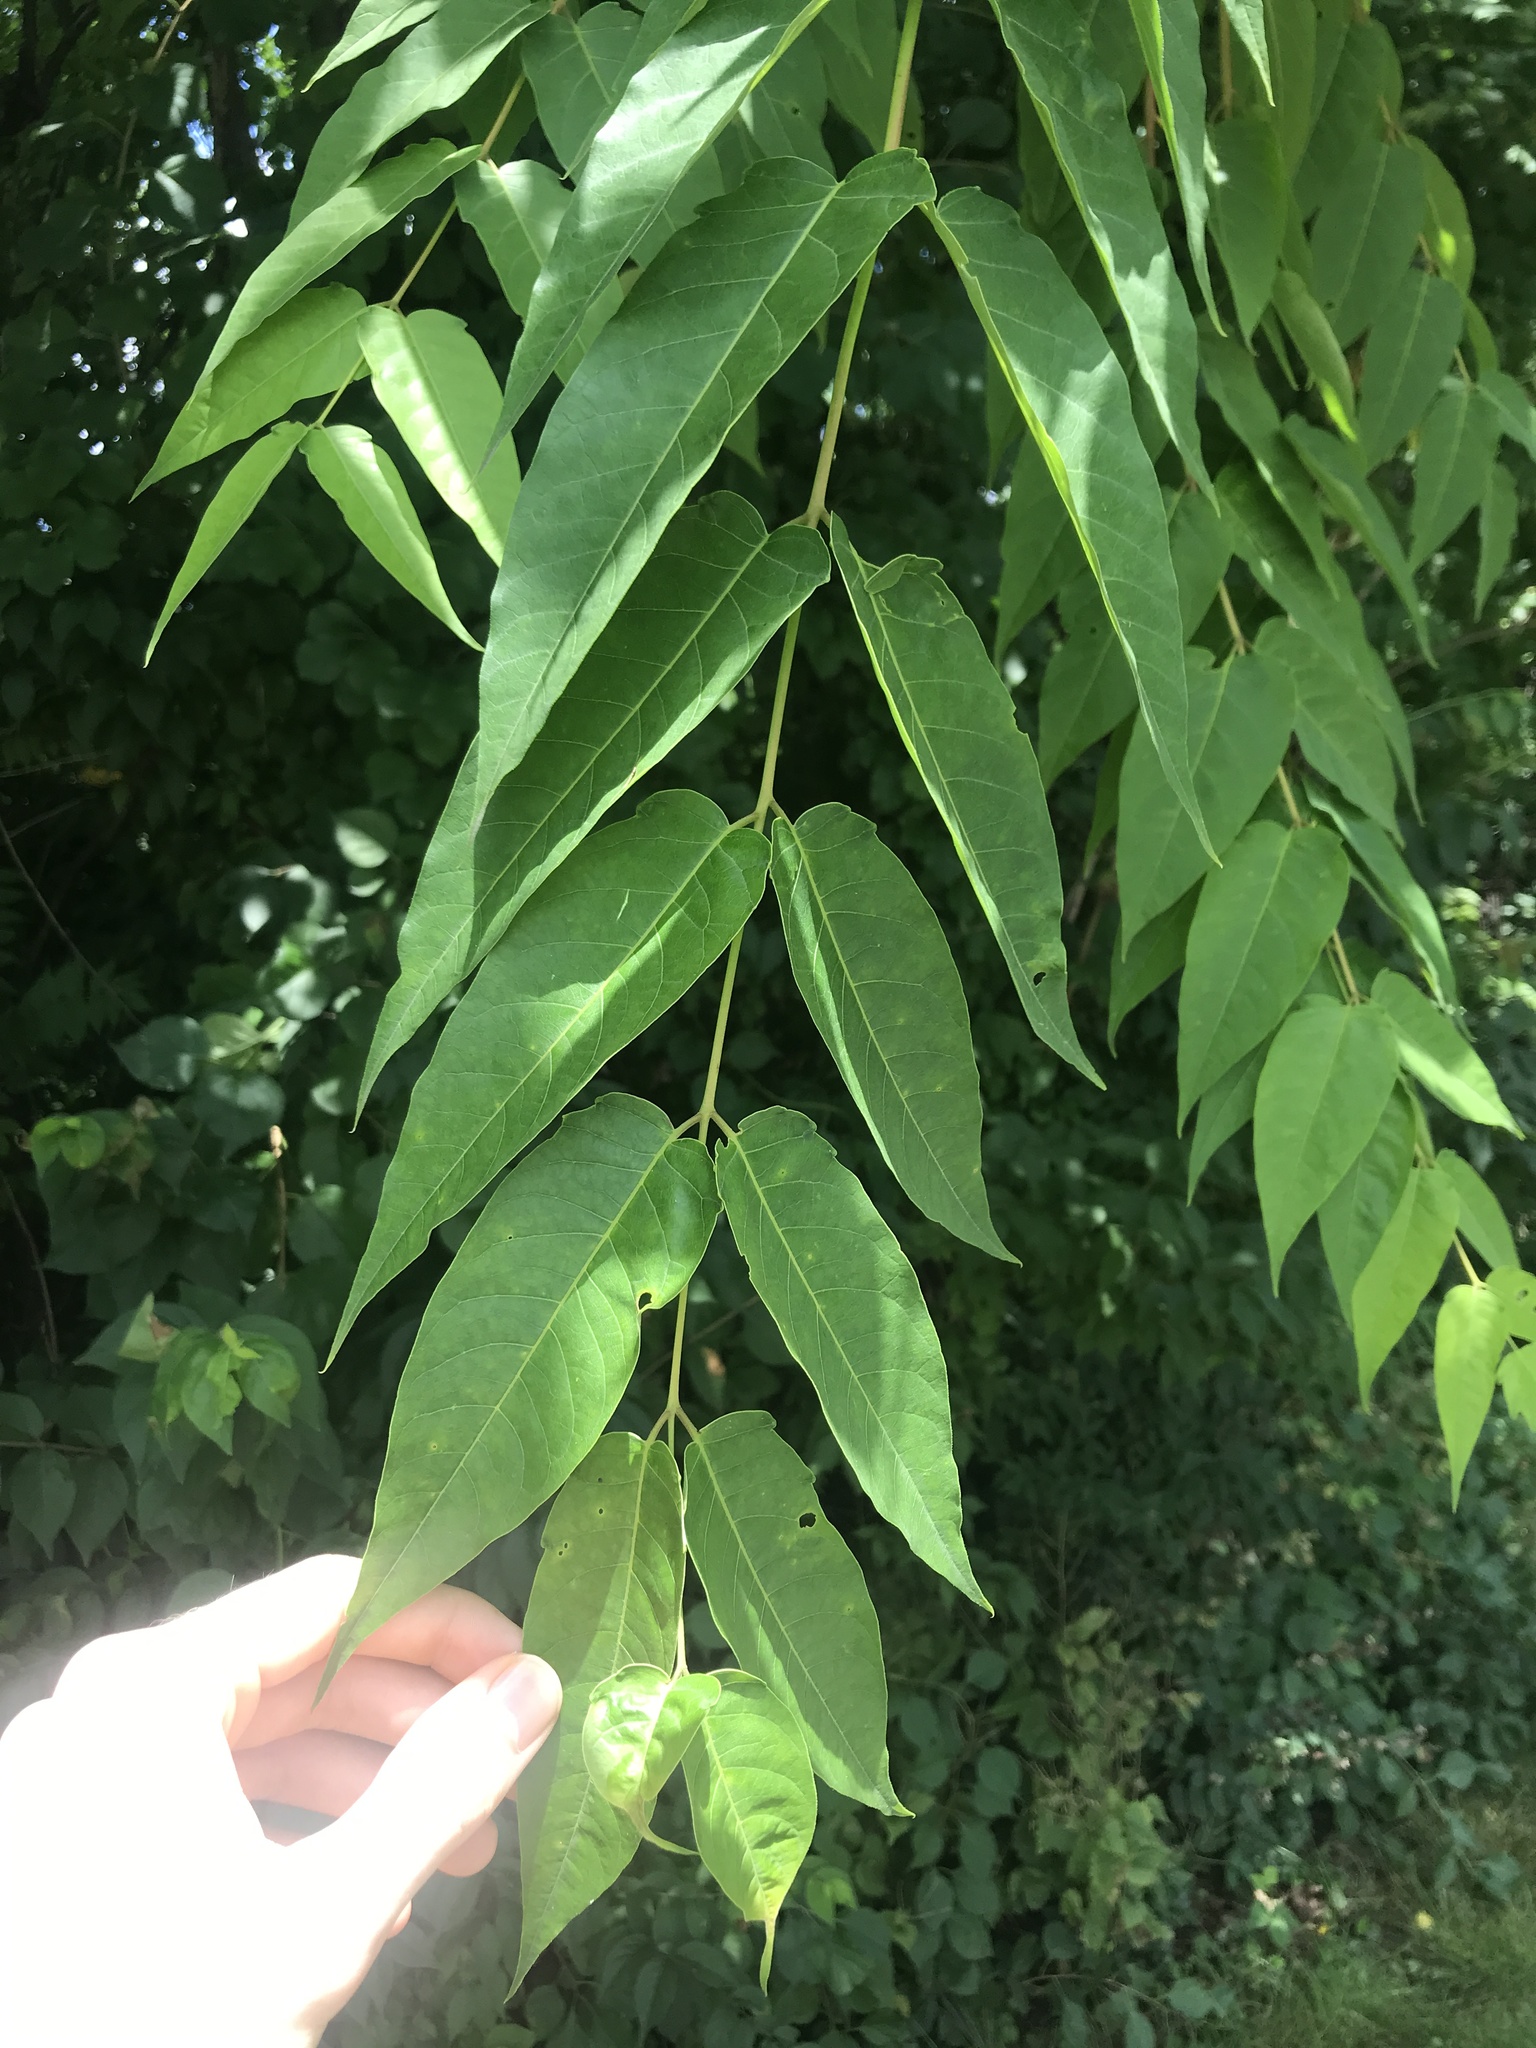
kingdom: Plantae
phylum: Tracheophyta
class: Magnoliopsida
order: Sapindales
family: Simaroubaceae
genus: Ailanthus
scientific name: Ailanthus altissima
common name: Tree-of-heaven
